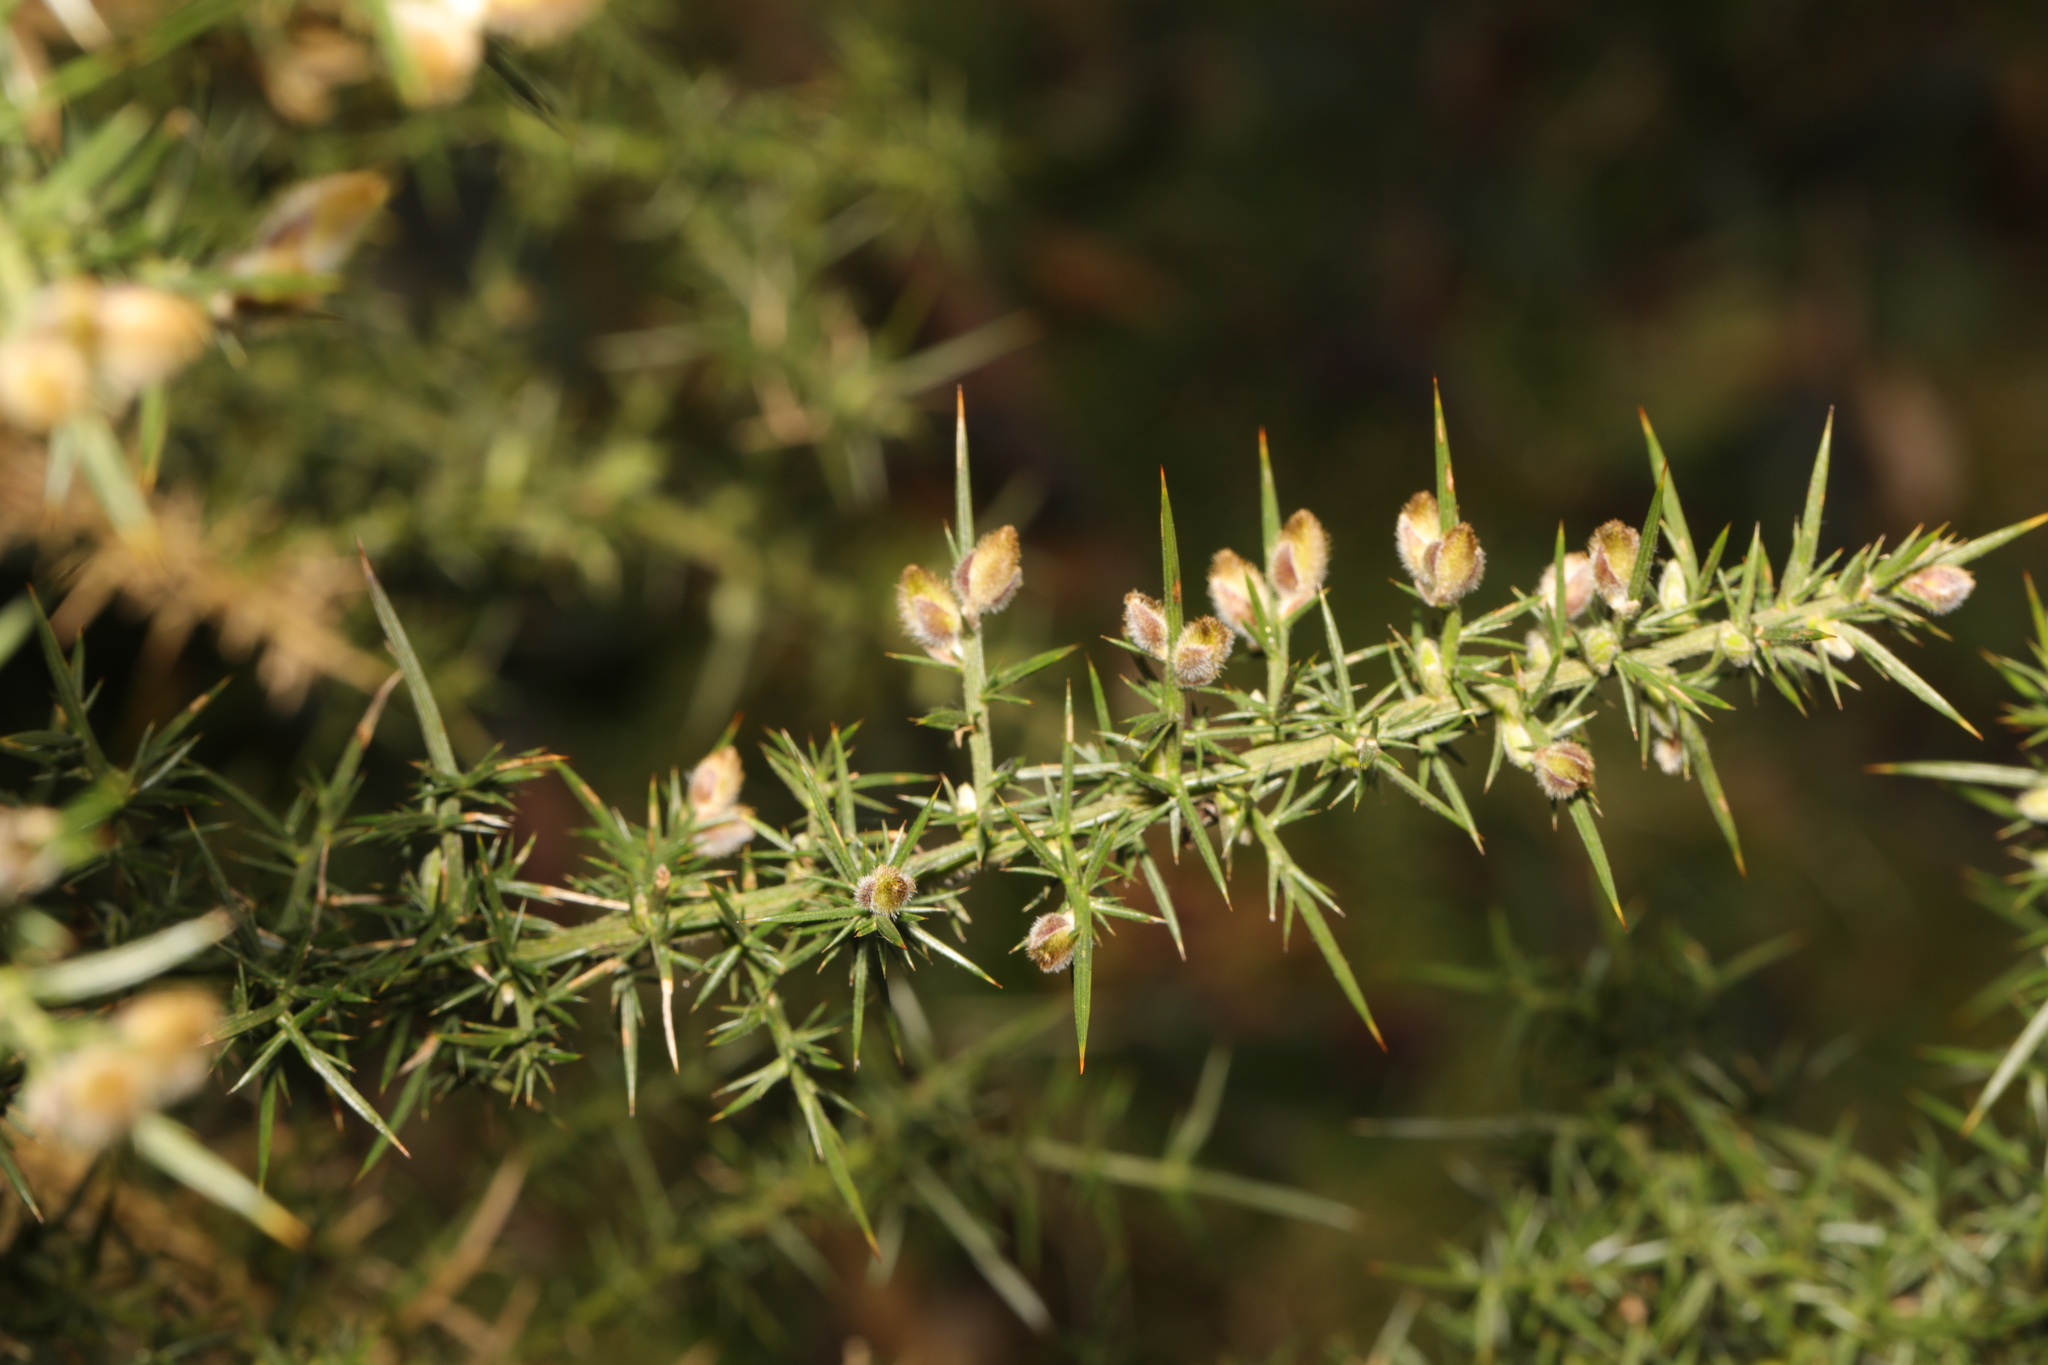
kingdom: Plantae
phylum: Tracheophyta
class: Magnoliopsida
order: Fabales
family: Fabaceae
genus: Ulex
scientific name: Ulex europaeus
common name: Common gorse
